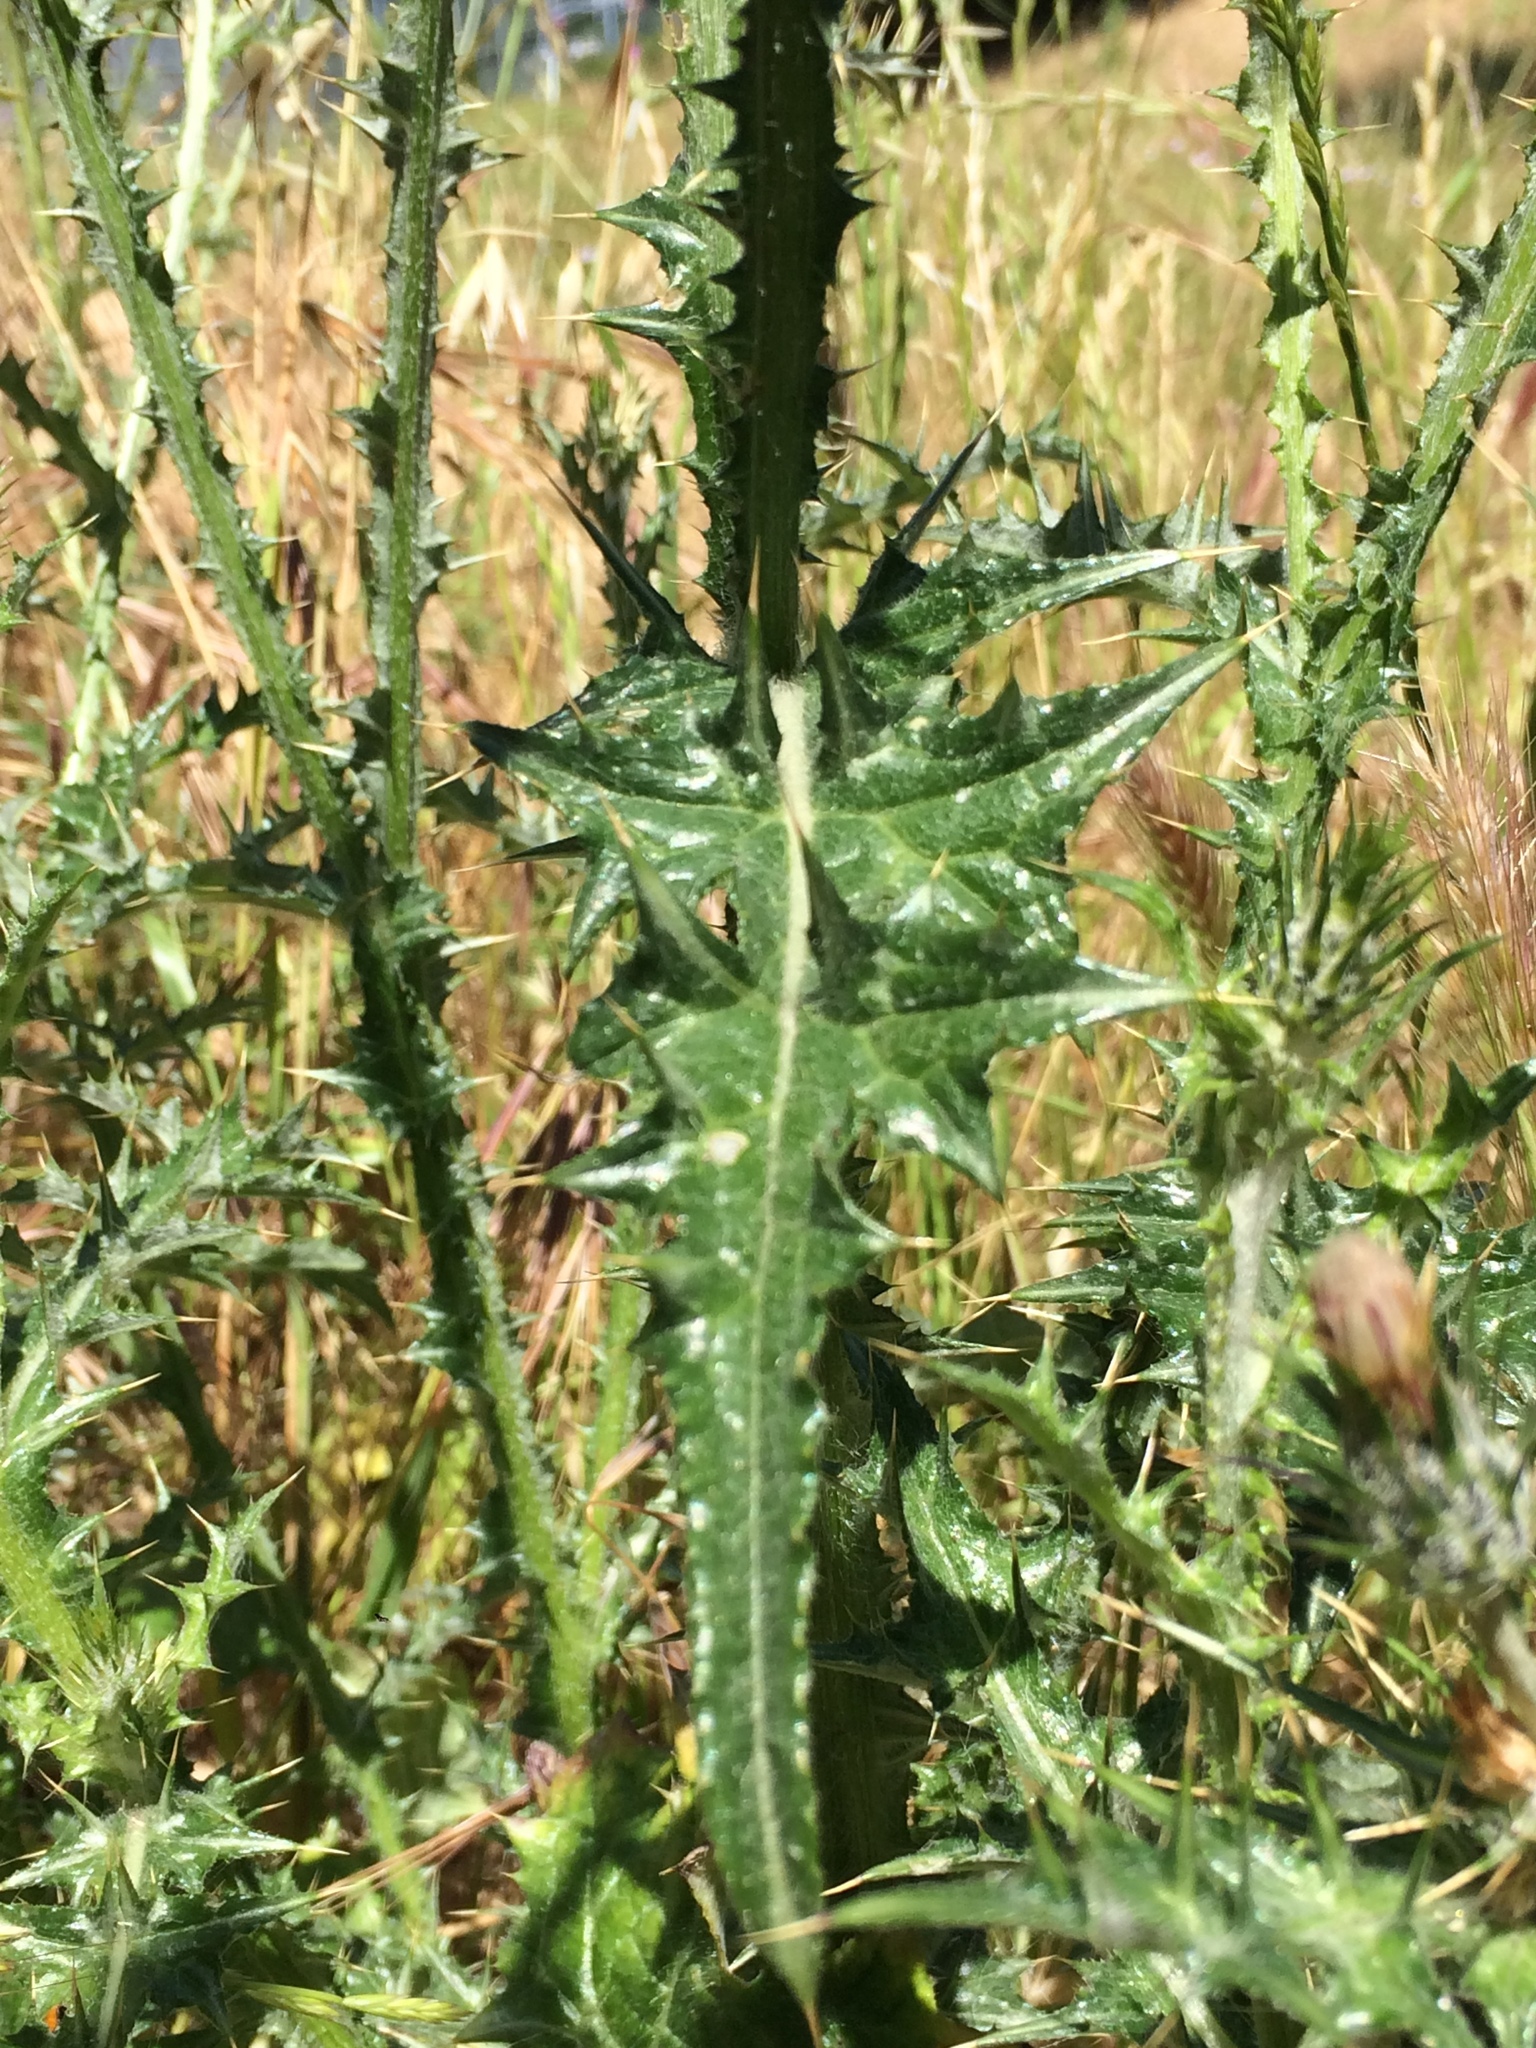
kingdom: Plantae
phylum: Tracheophyta
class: Magnoliopsida
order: Asterales
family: Asteraceae
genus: Carduus
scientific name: Carduus pycnocephalus
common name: Plymouth thistle
